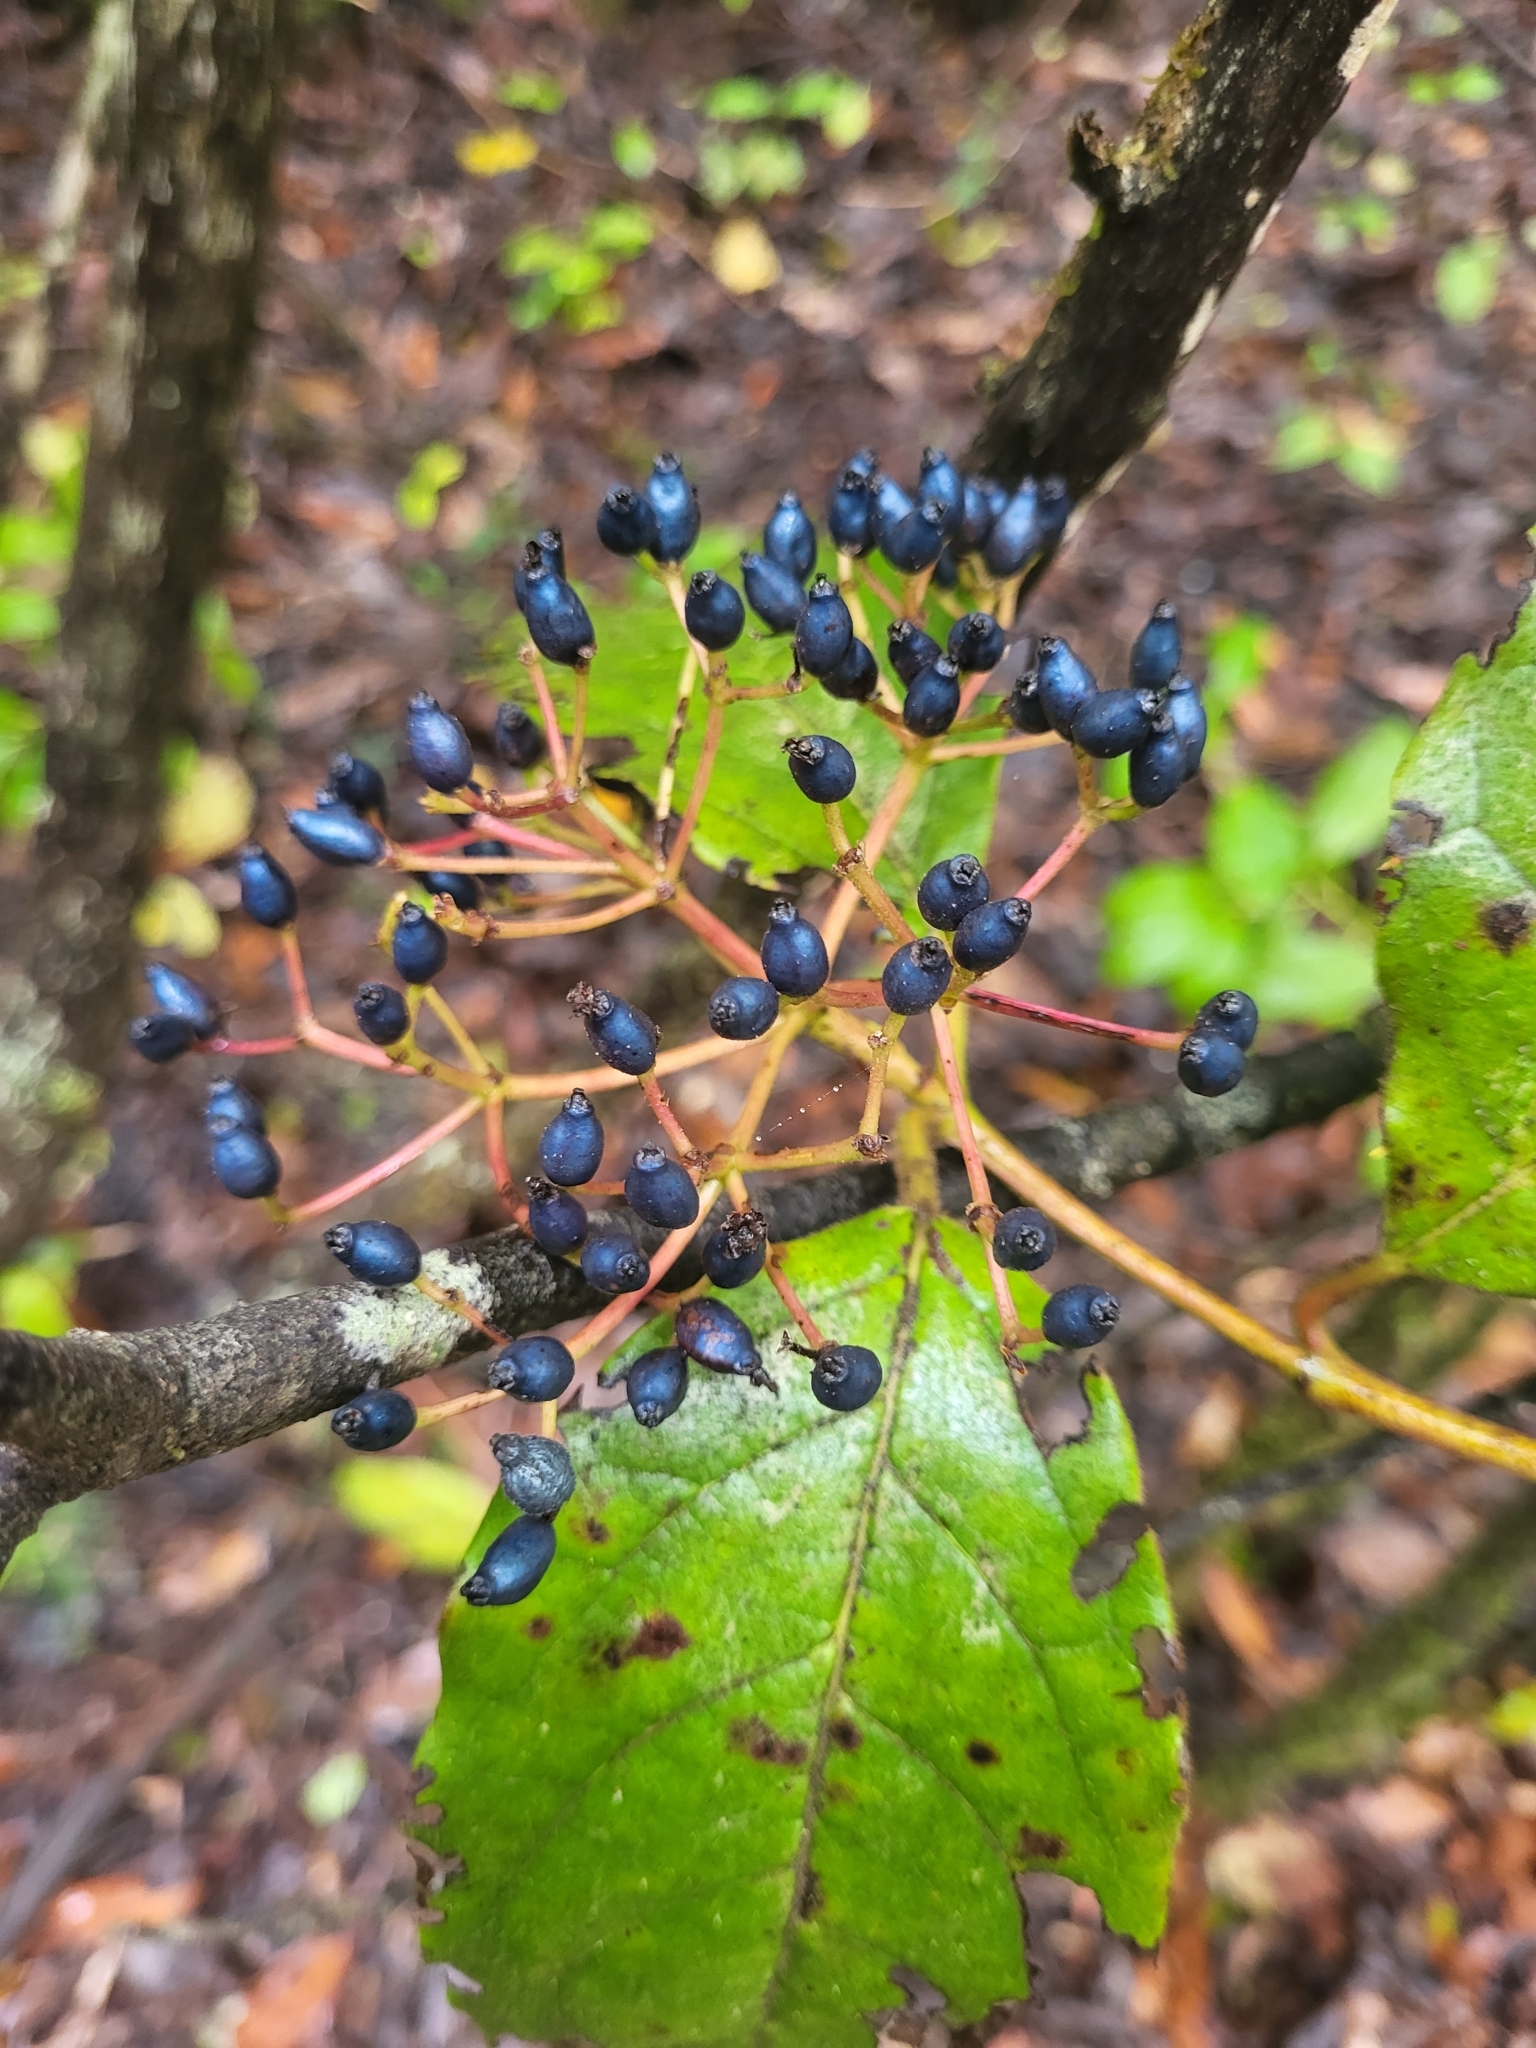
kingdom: Plantae
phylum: Tracheophyta
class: Magnoliopsida
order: Dipsacales
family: Viburnaceae
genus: Viburnum
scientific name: Viburnum rugosum
